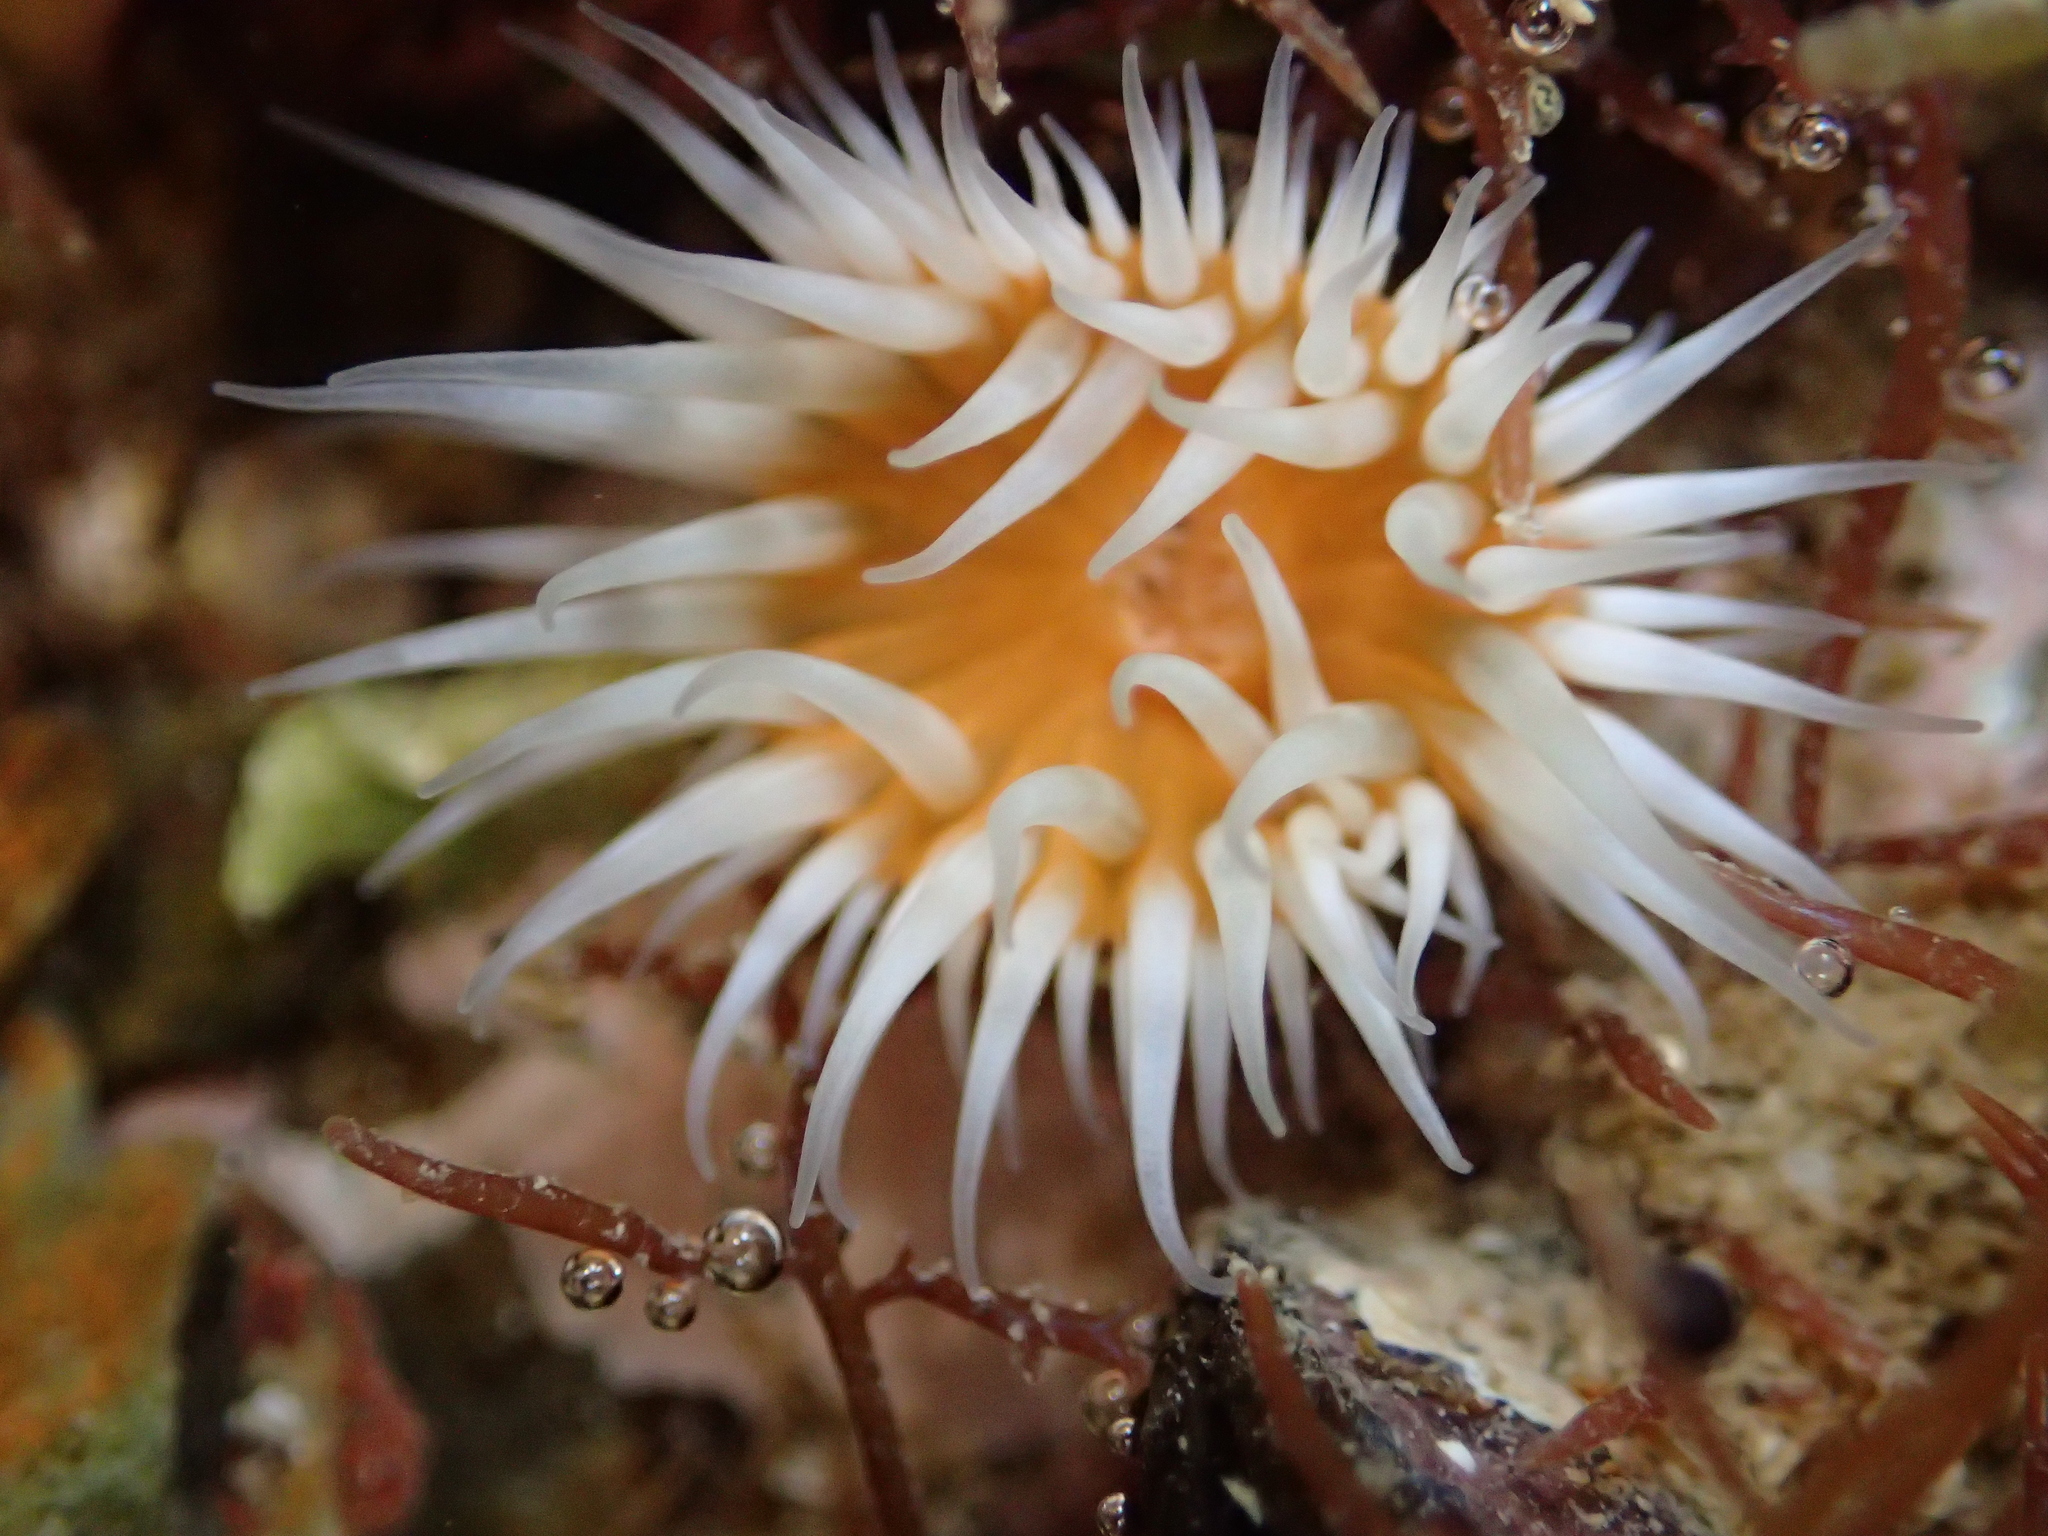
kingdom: Animalia
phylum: Cnidaria
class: Anthozoa
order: Actiniaria
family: Sagartiidae
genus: Anthothoe
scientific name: Anthothoe albocincta
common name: Orange striped anemone
